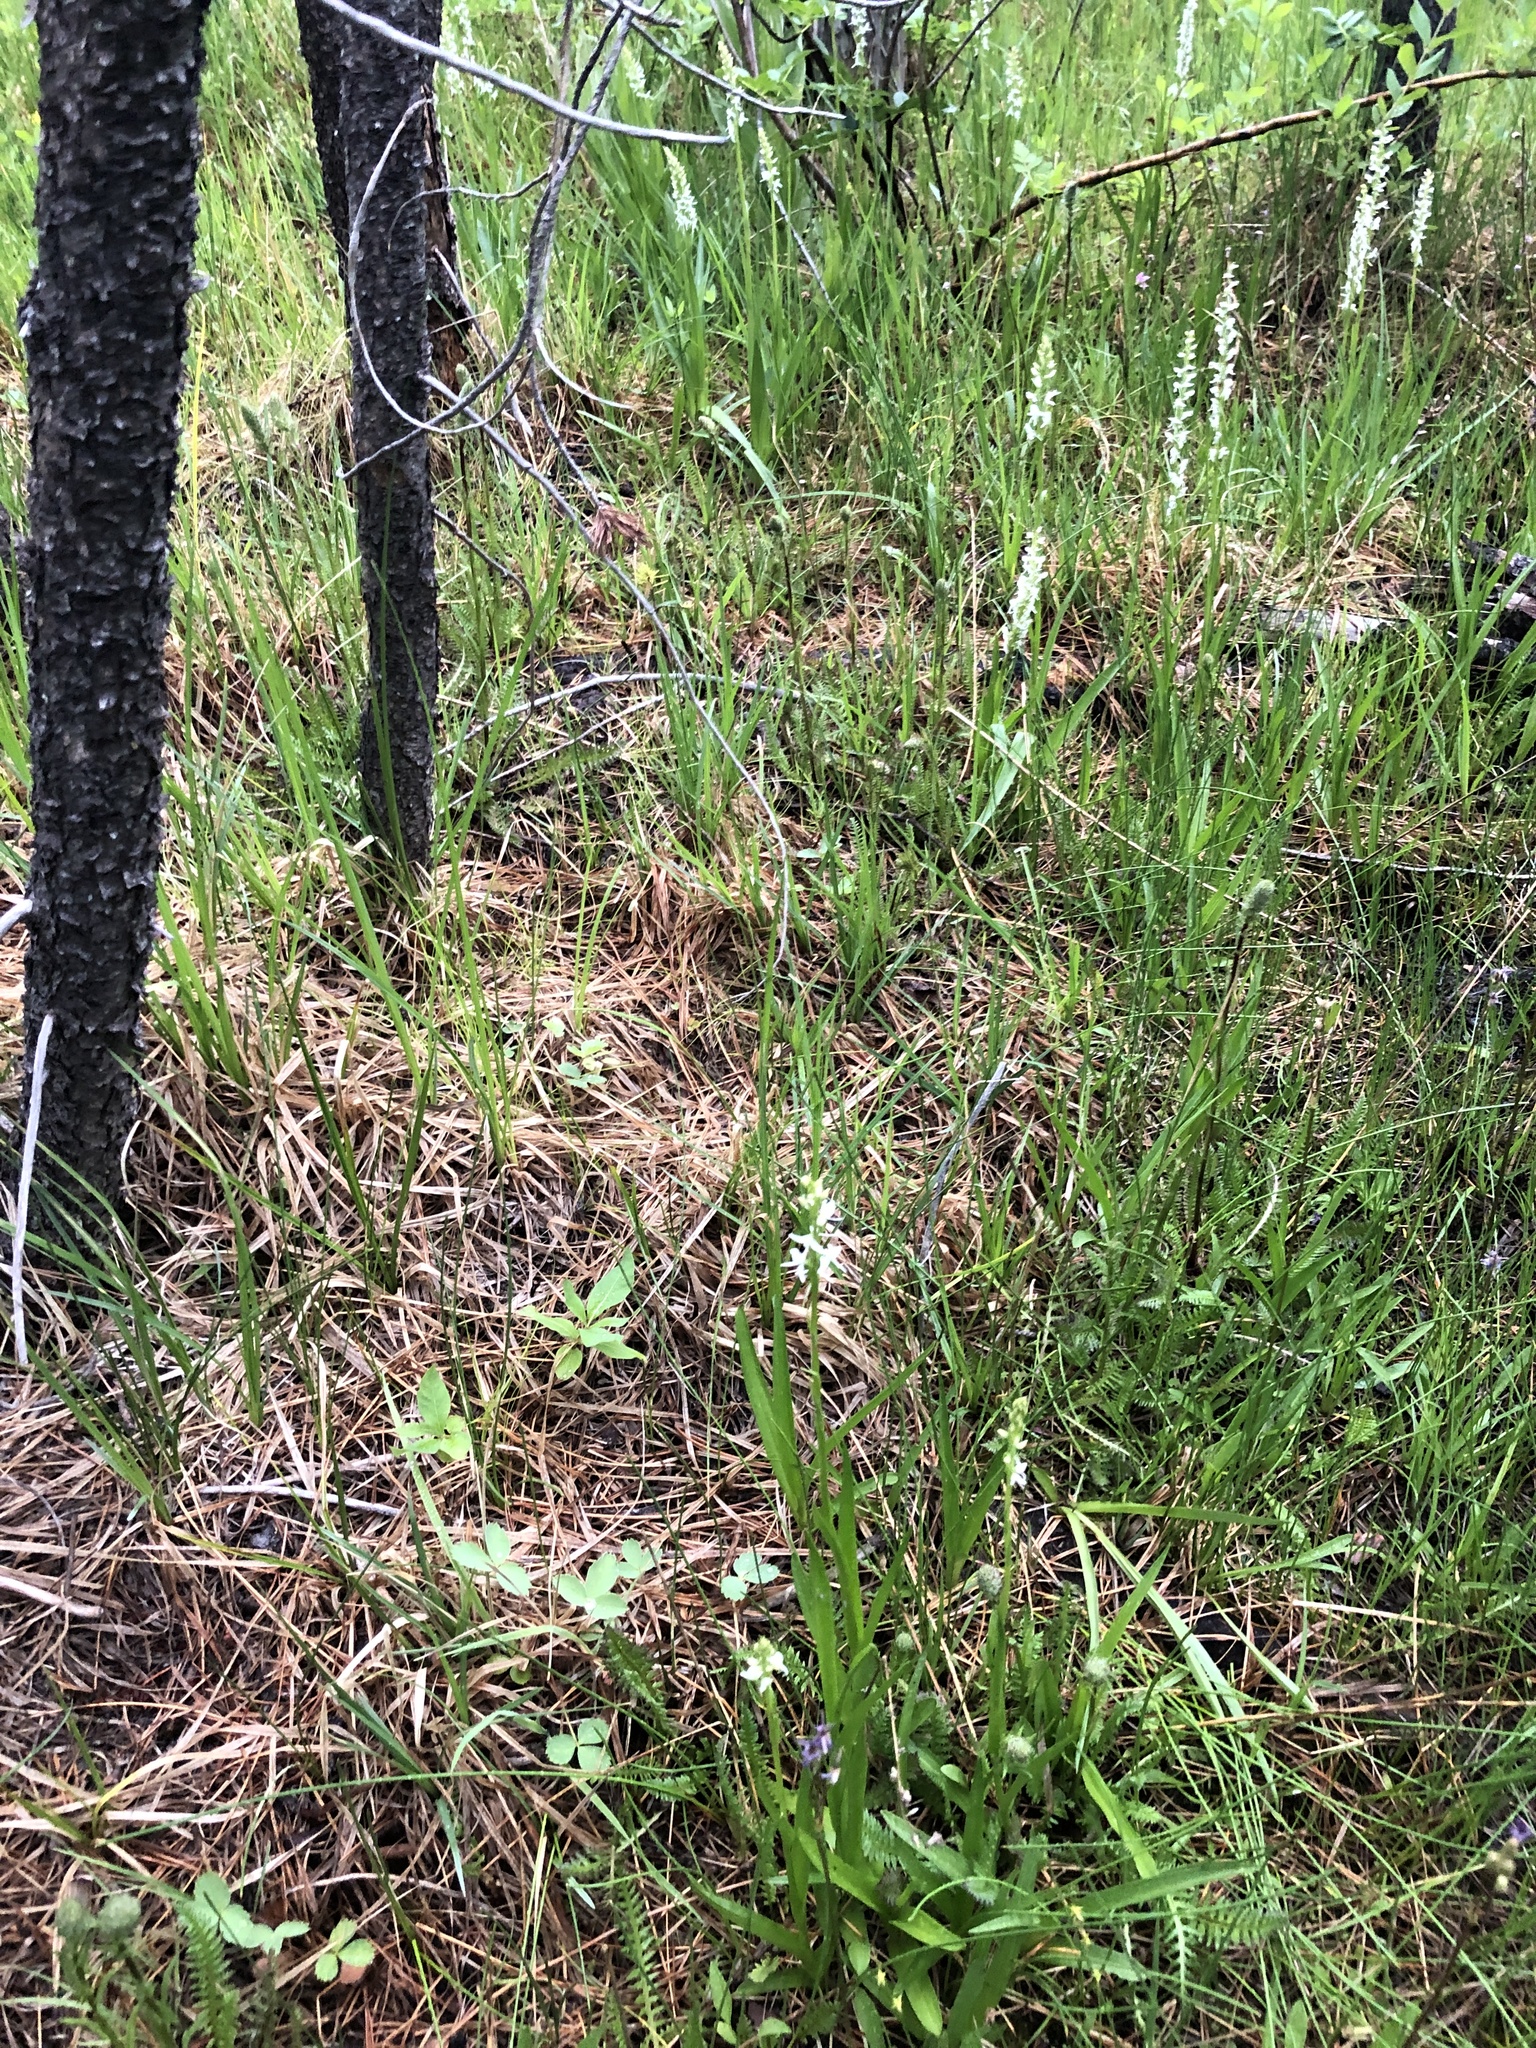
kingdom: Plantae
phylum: Tracheophyta
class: Liliopsida
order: Asparagales
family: Orchidaceae
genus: Platanthera
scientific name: Platanthera dilatata
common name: Bog candles
